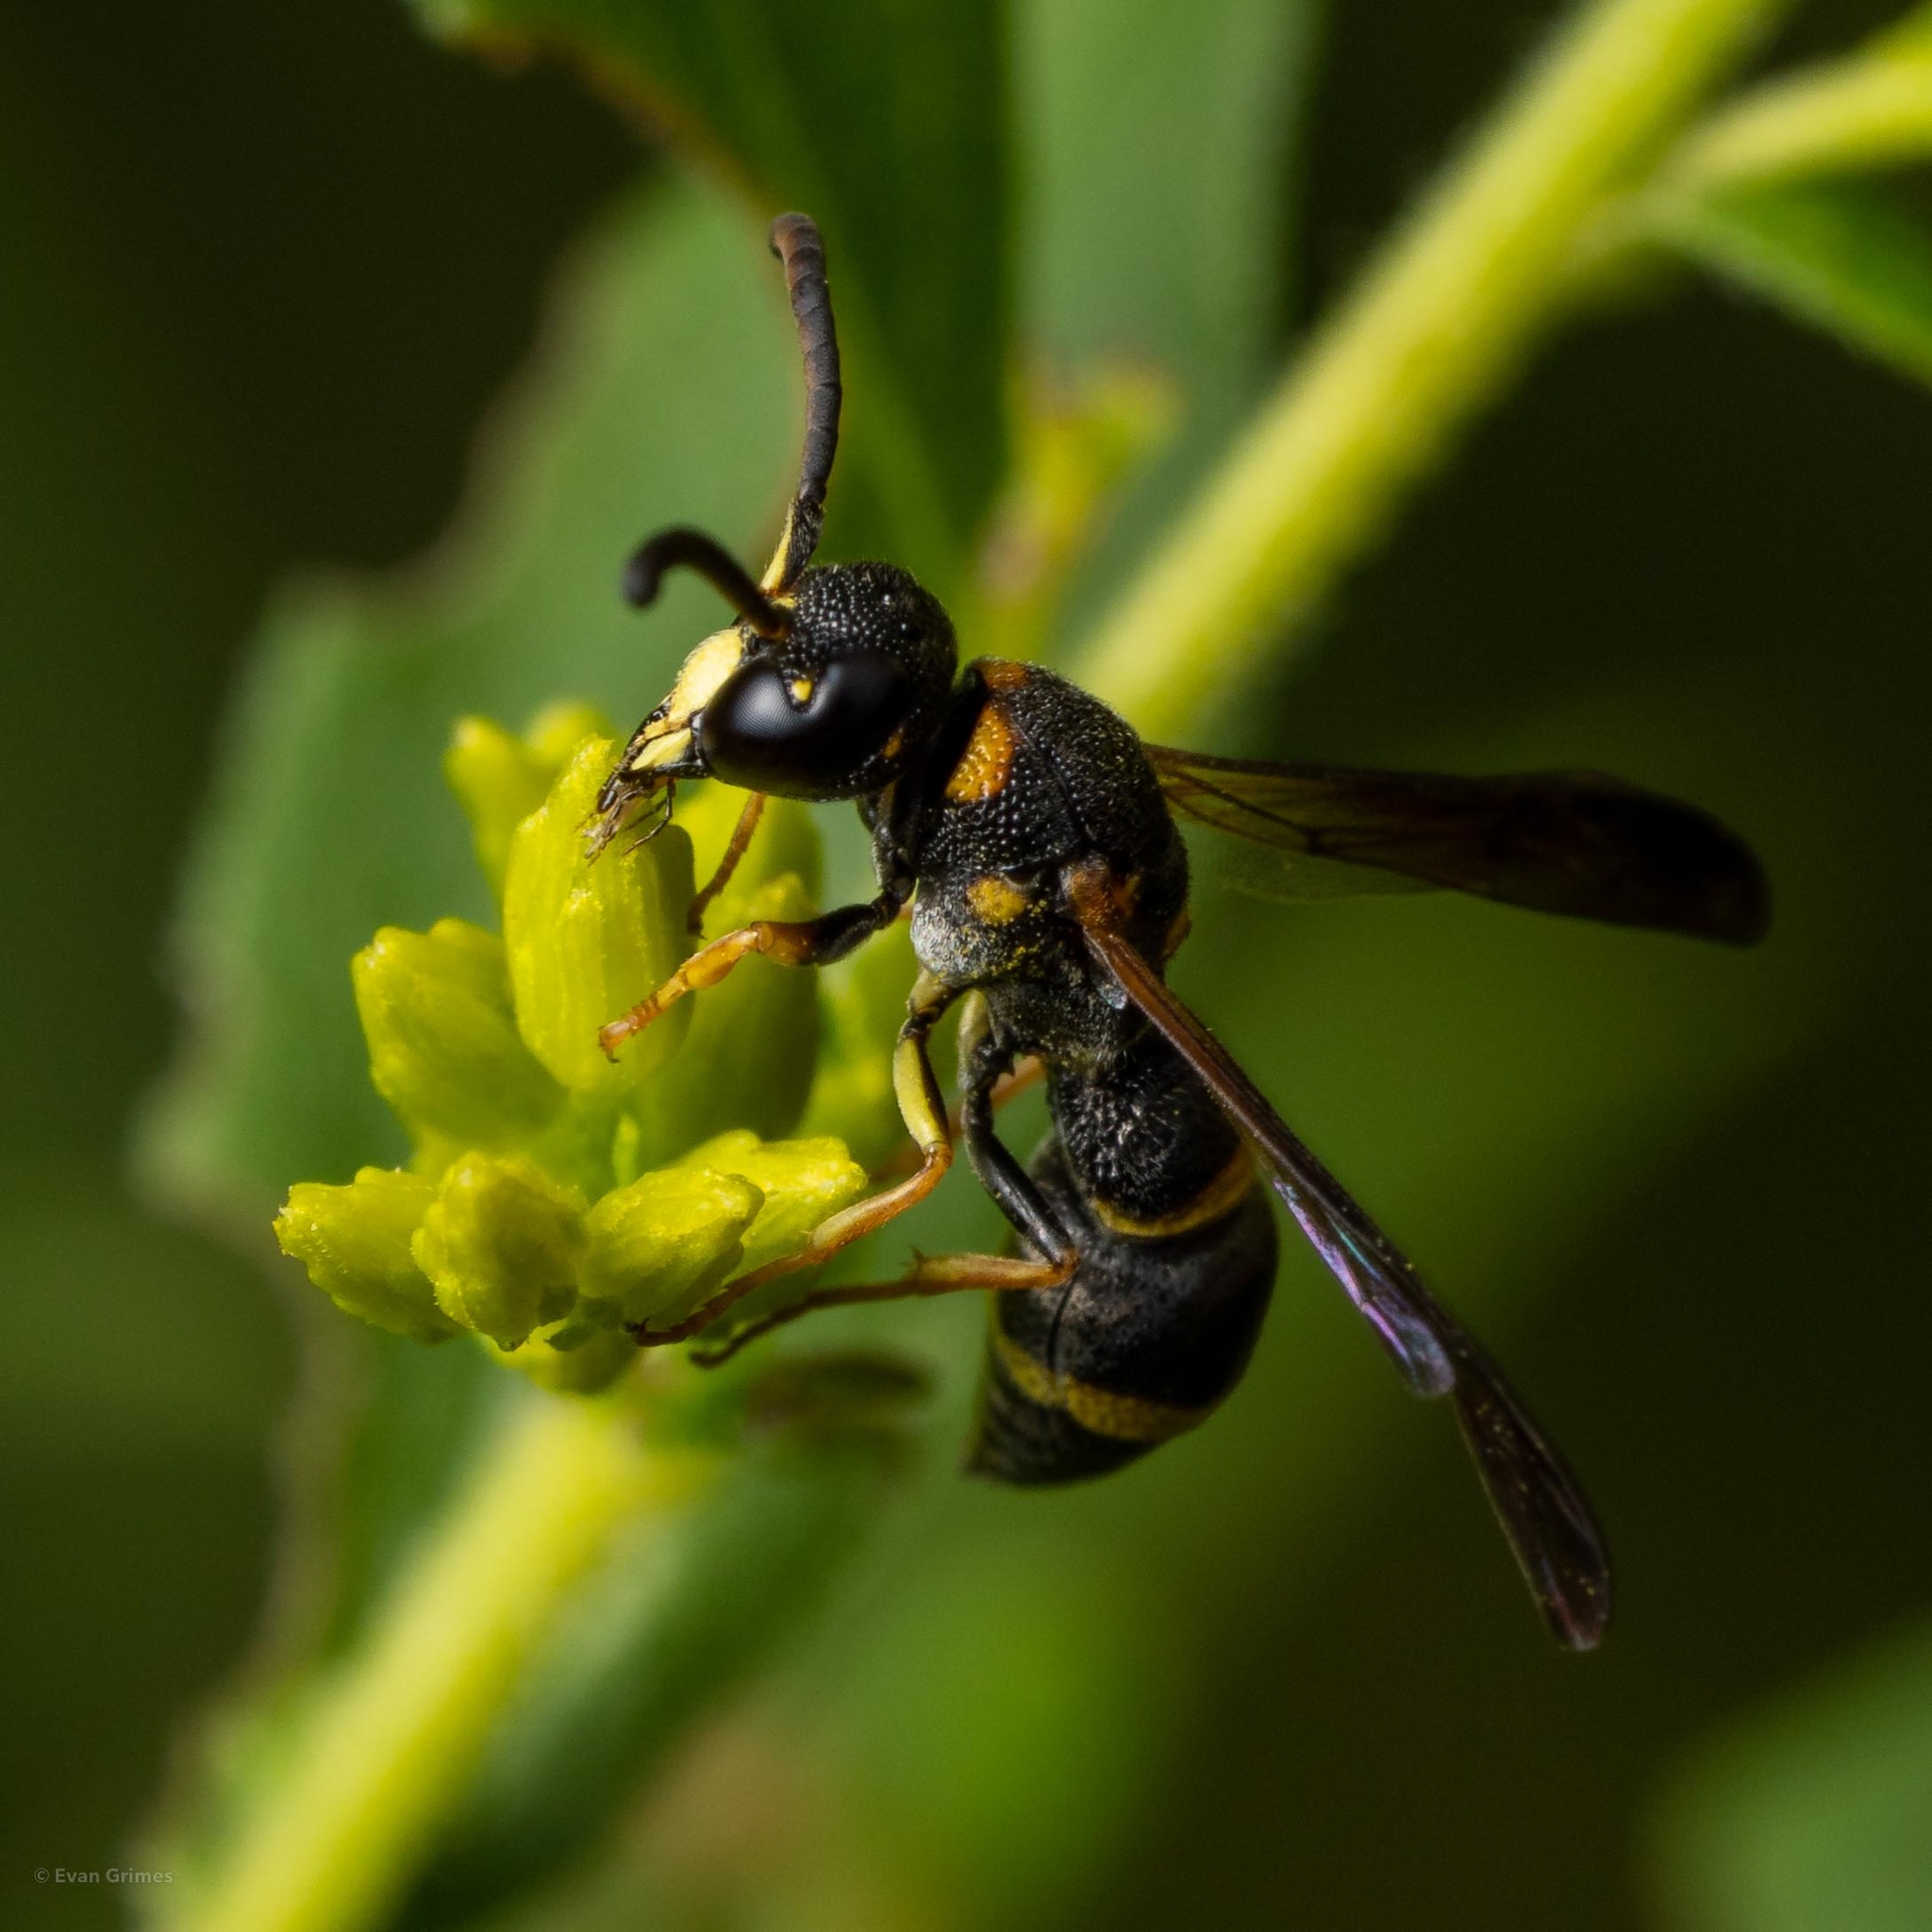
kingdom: Animalia
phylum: Arthropoda
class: Insecta
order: Hymenoptera
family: Eumenidae
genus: Parancistrocerus
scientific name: Parancistrocerus perennis
